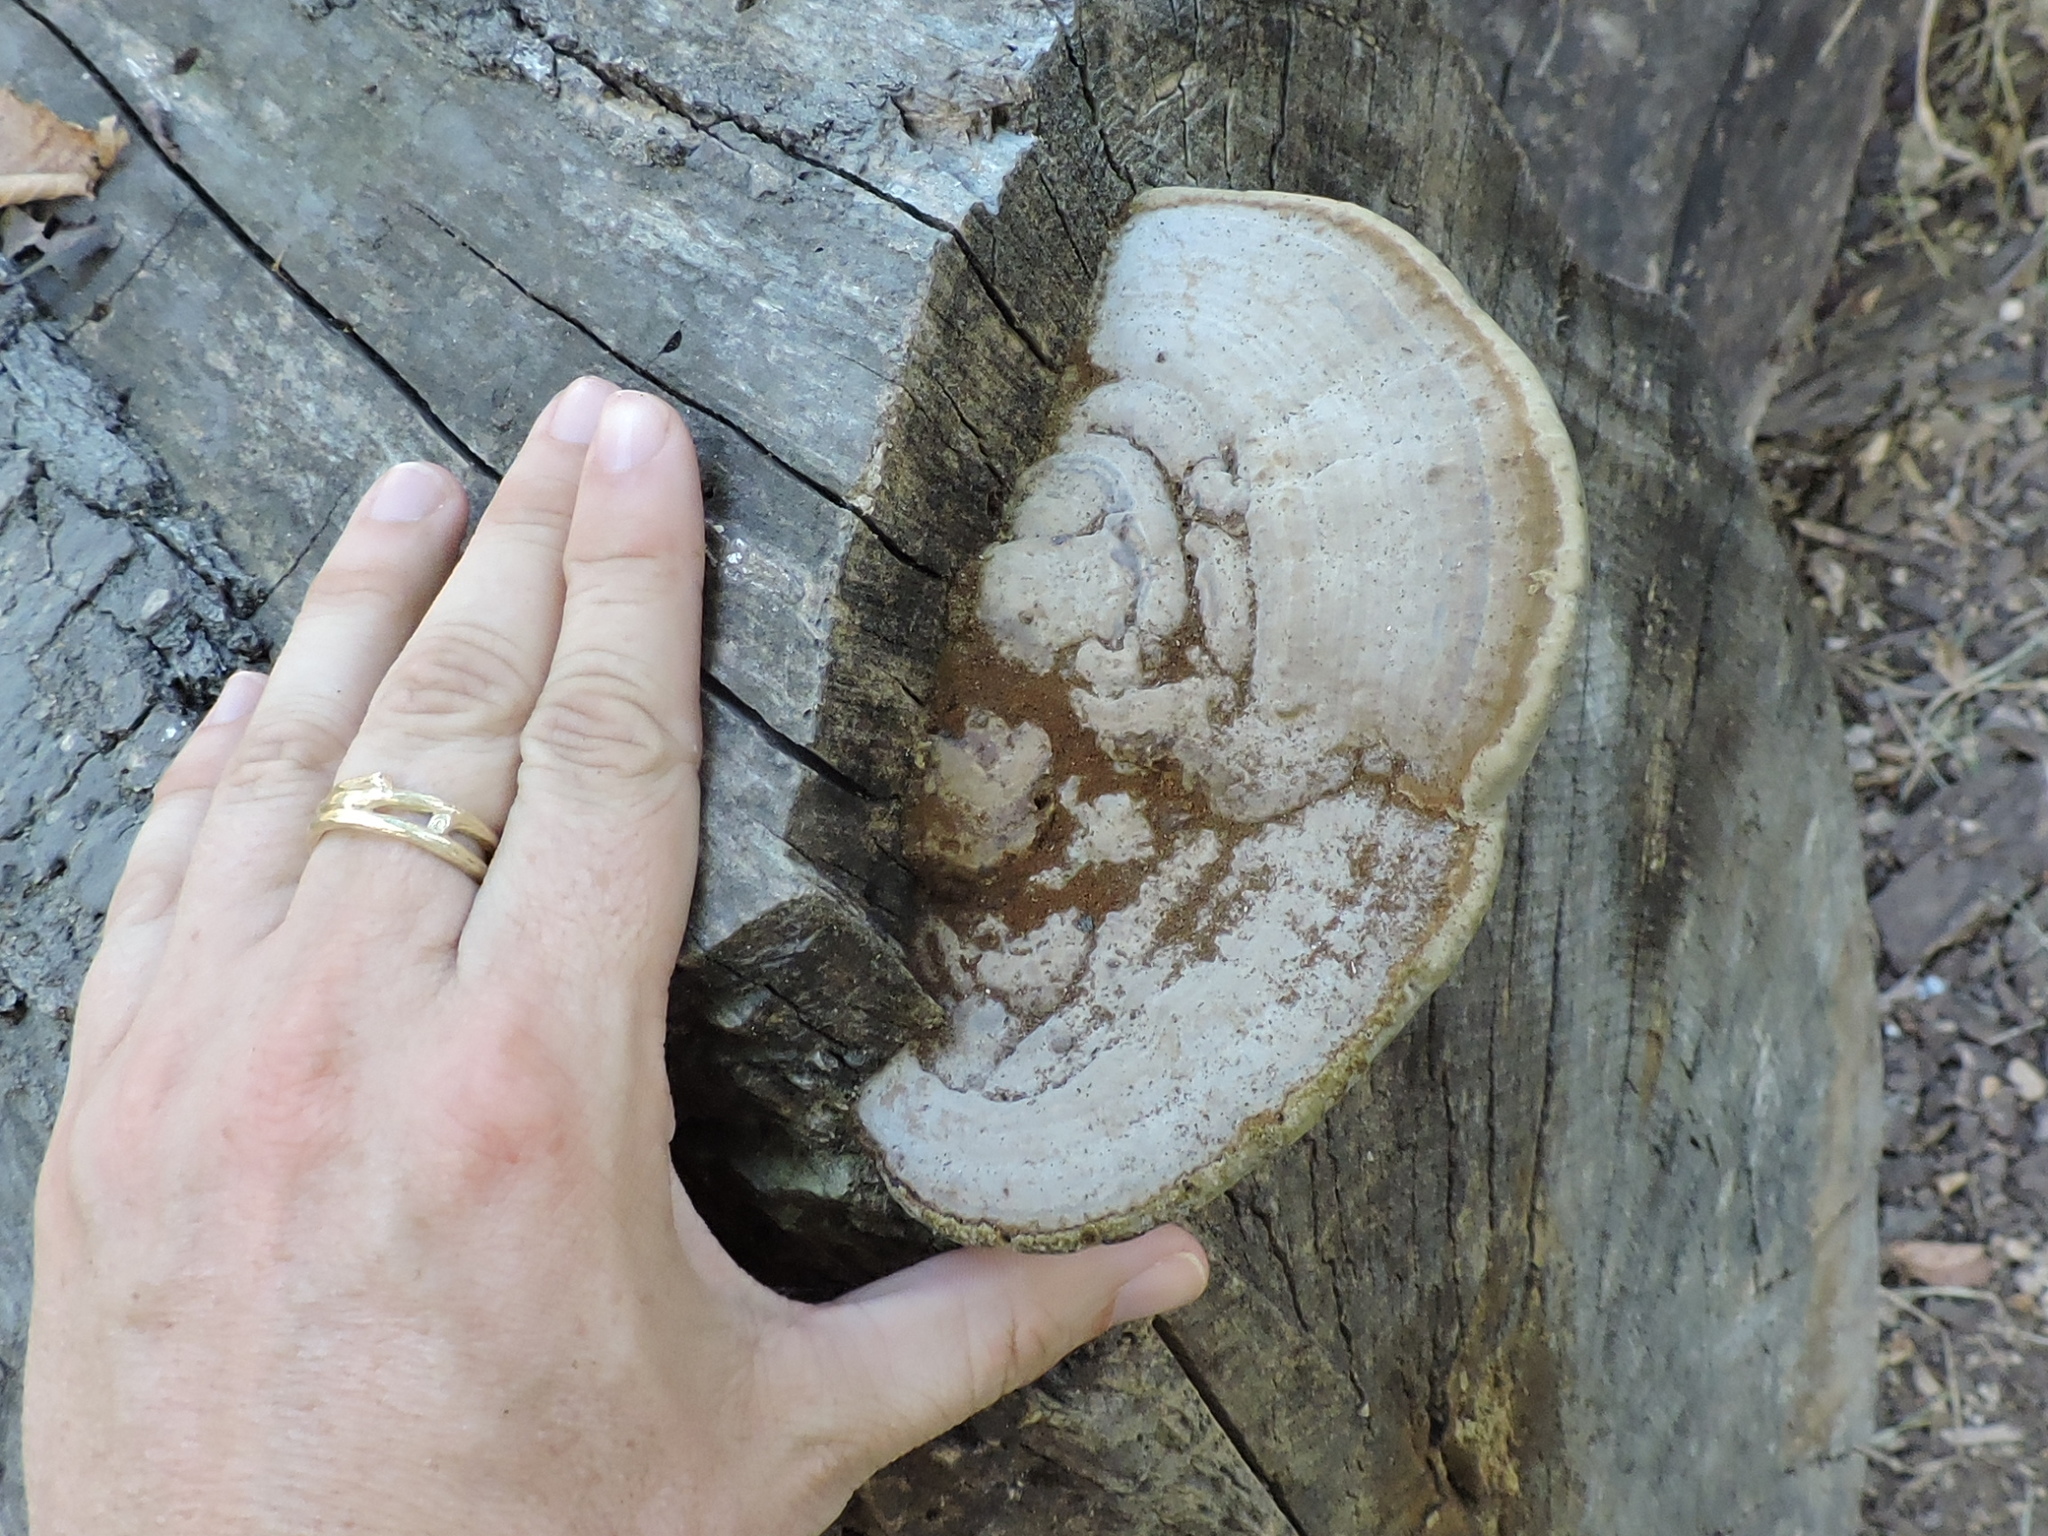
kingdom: Fungi
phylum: Basidiomycota
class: Agaricomycetes
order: Polyporales
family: Polyporaceae
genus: Ganoderma
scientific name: Ganoderma applanatum
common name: Artist's bracket
